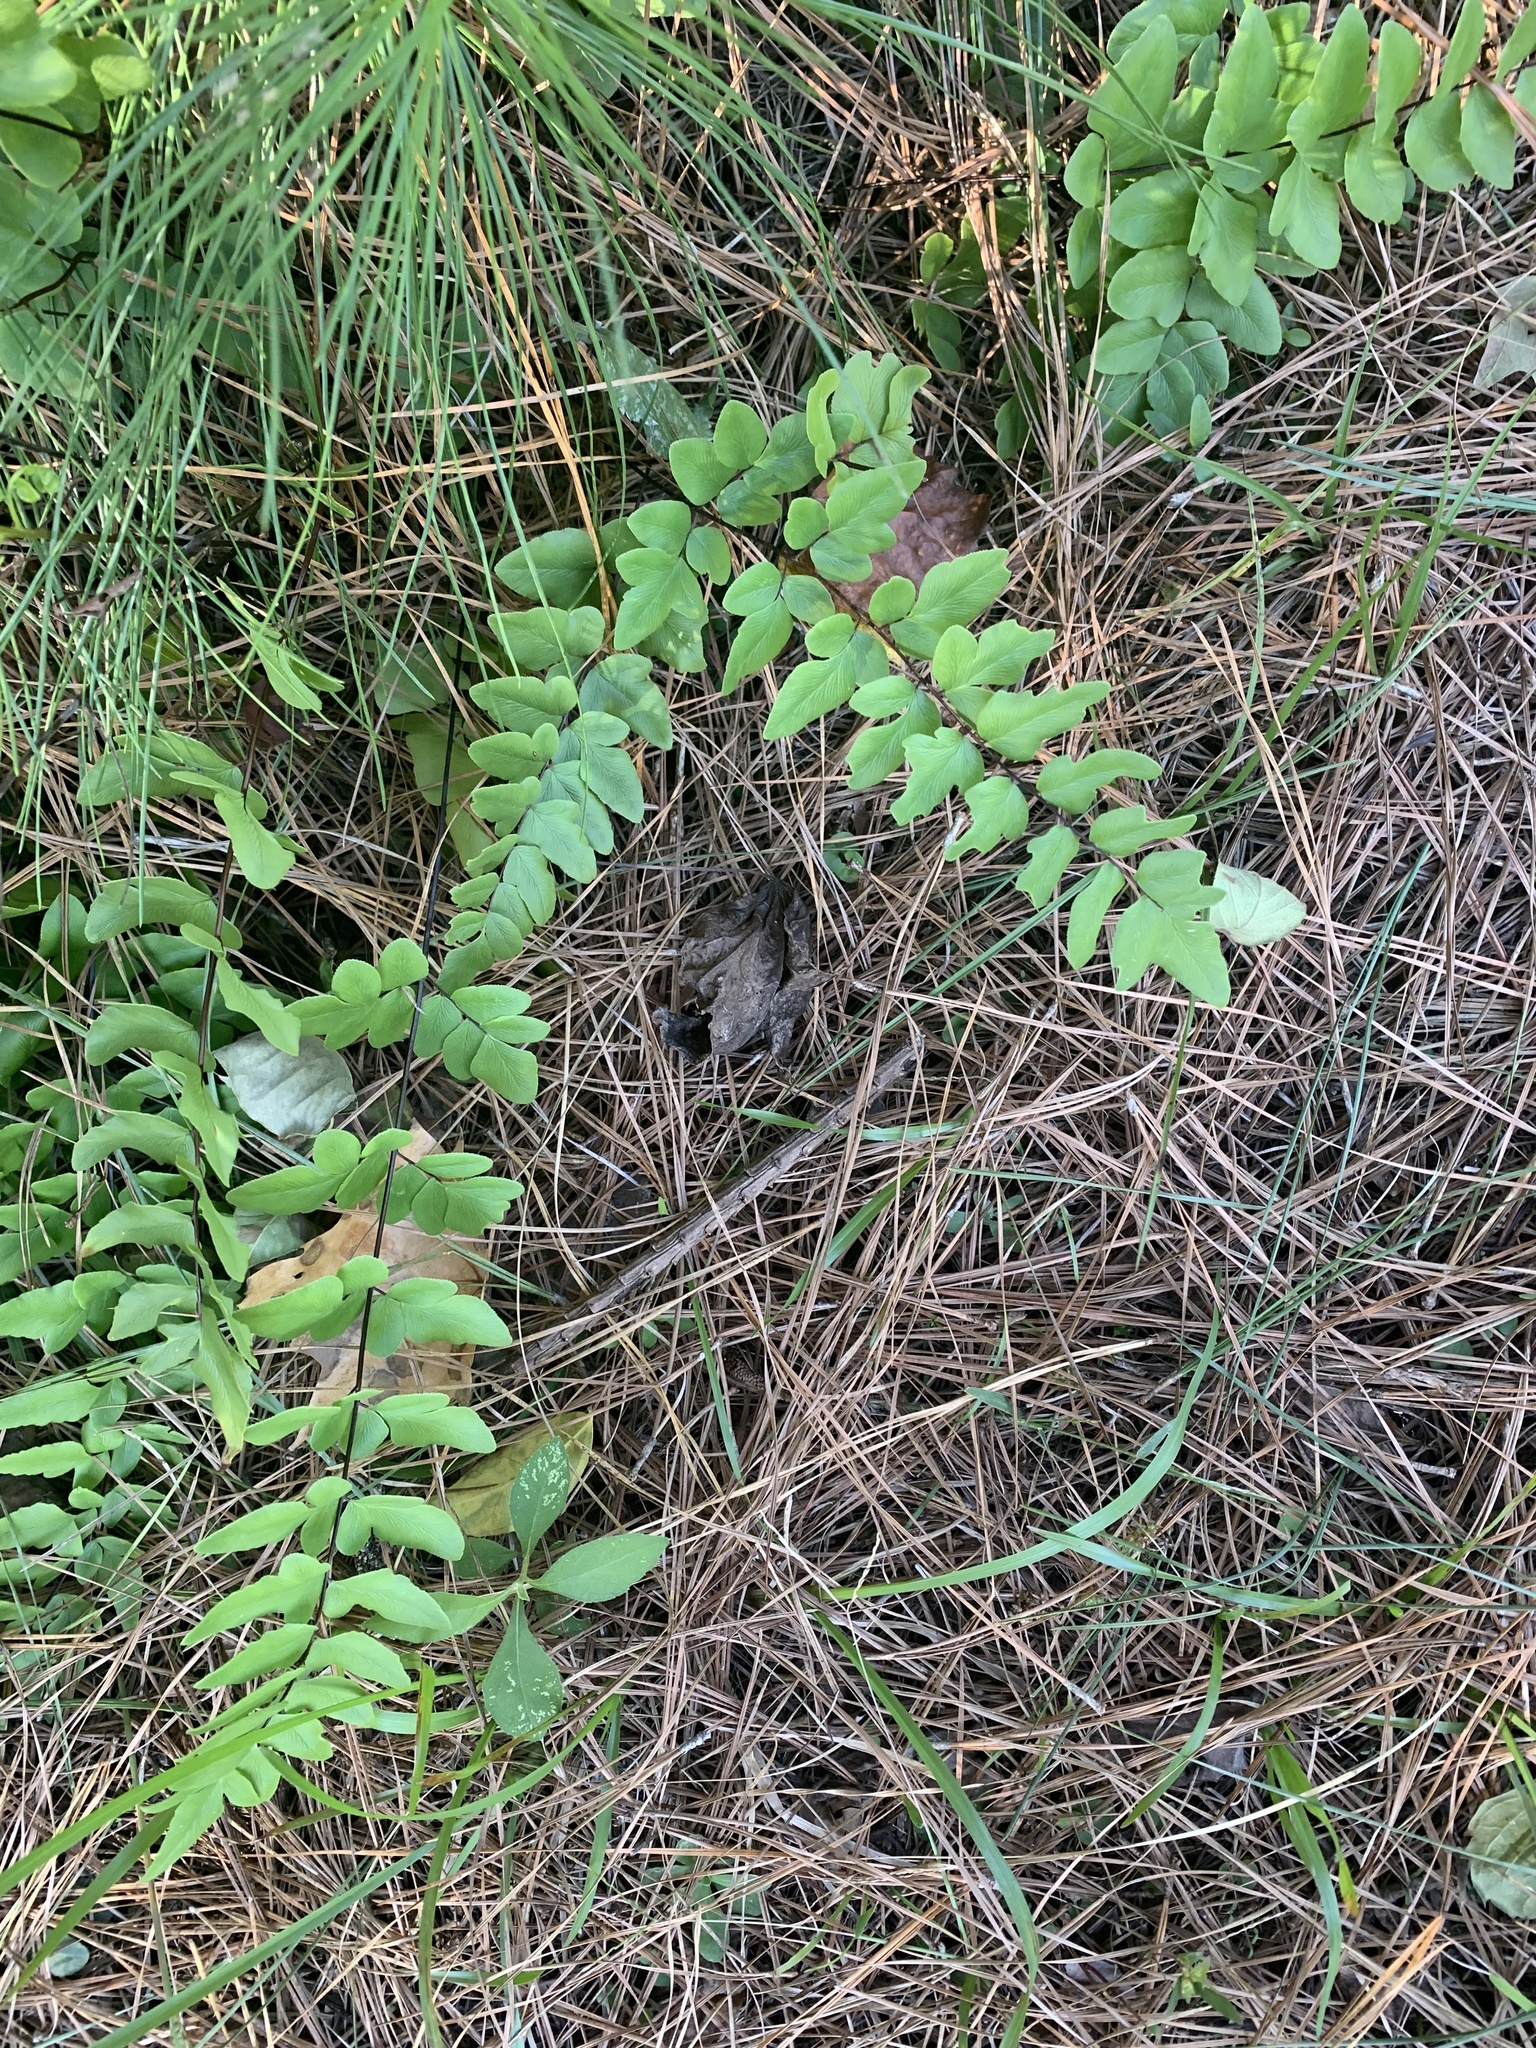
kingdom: Plantae
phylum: Tracheophyta
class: Polypodiopsida
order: Polypodiales
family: Pteridaceae
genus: Cheilanthes
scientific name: Cheilanthes viridis
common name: Green cliffbrake
